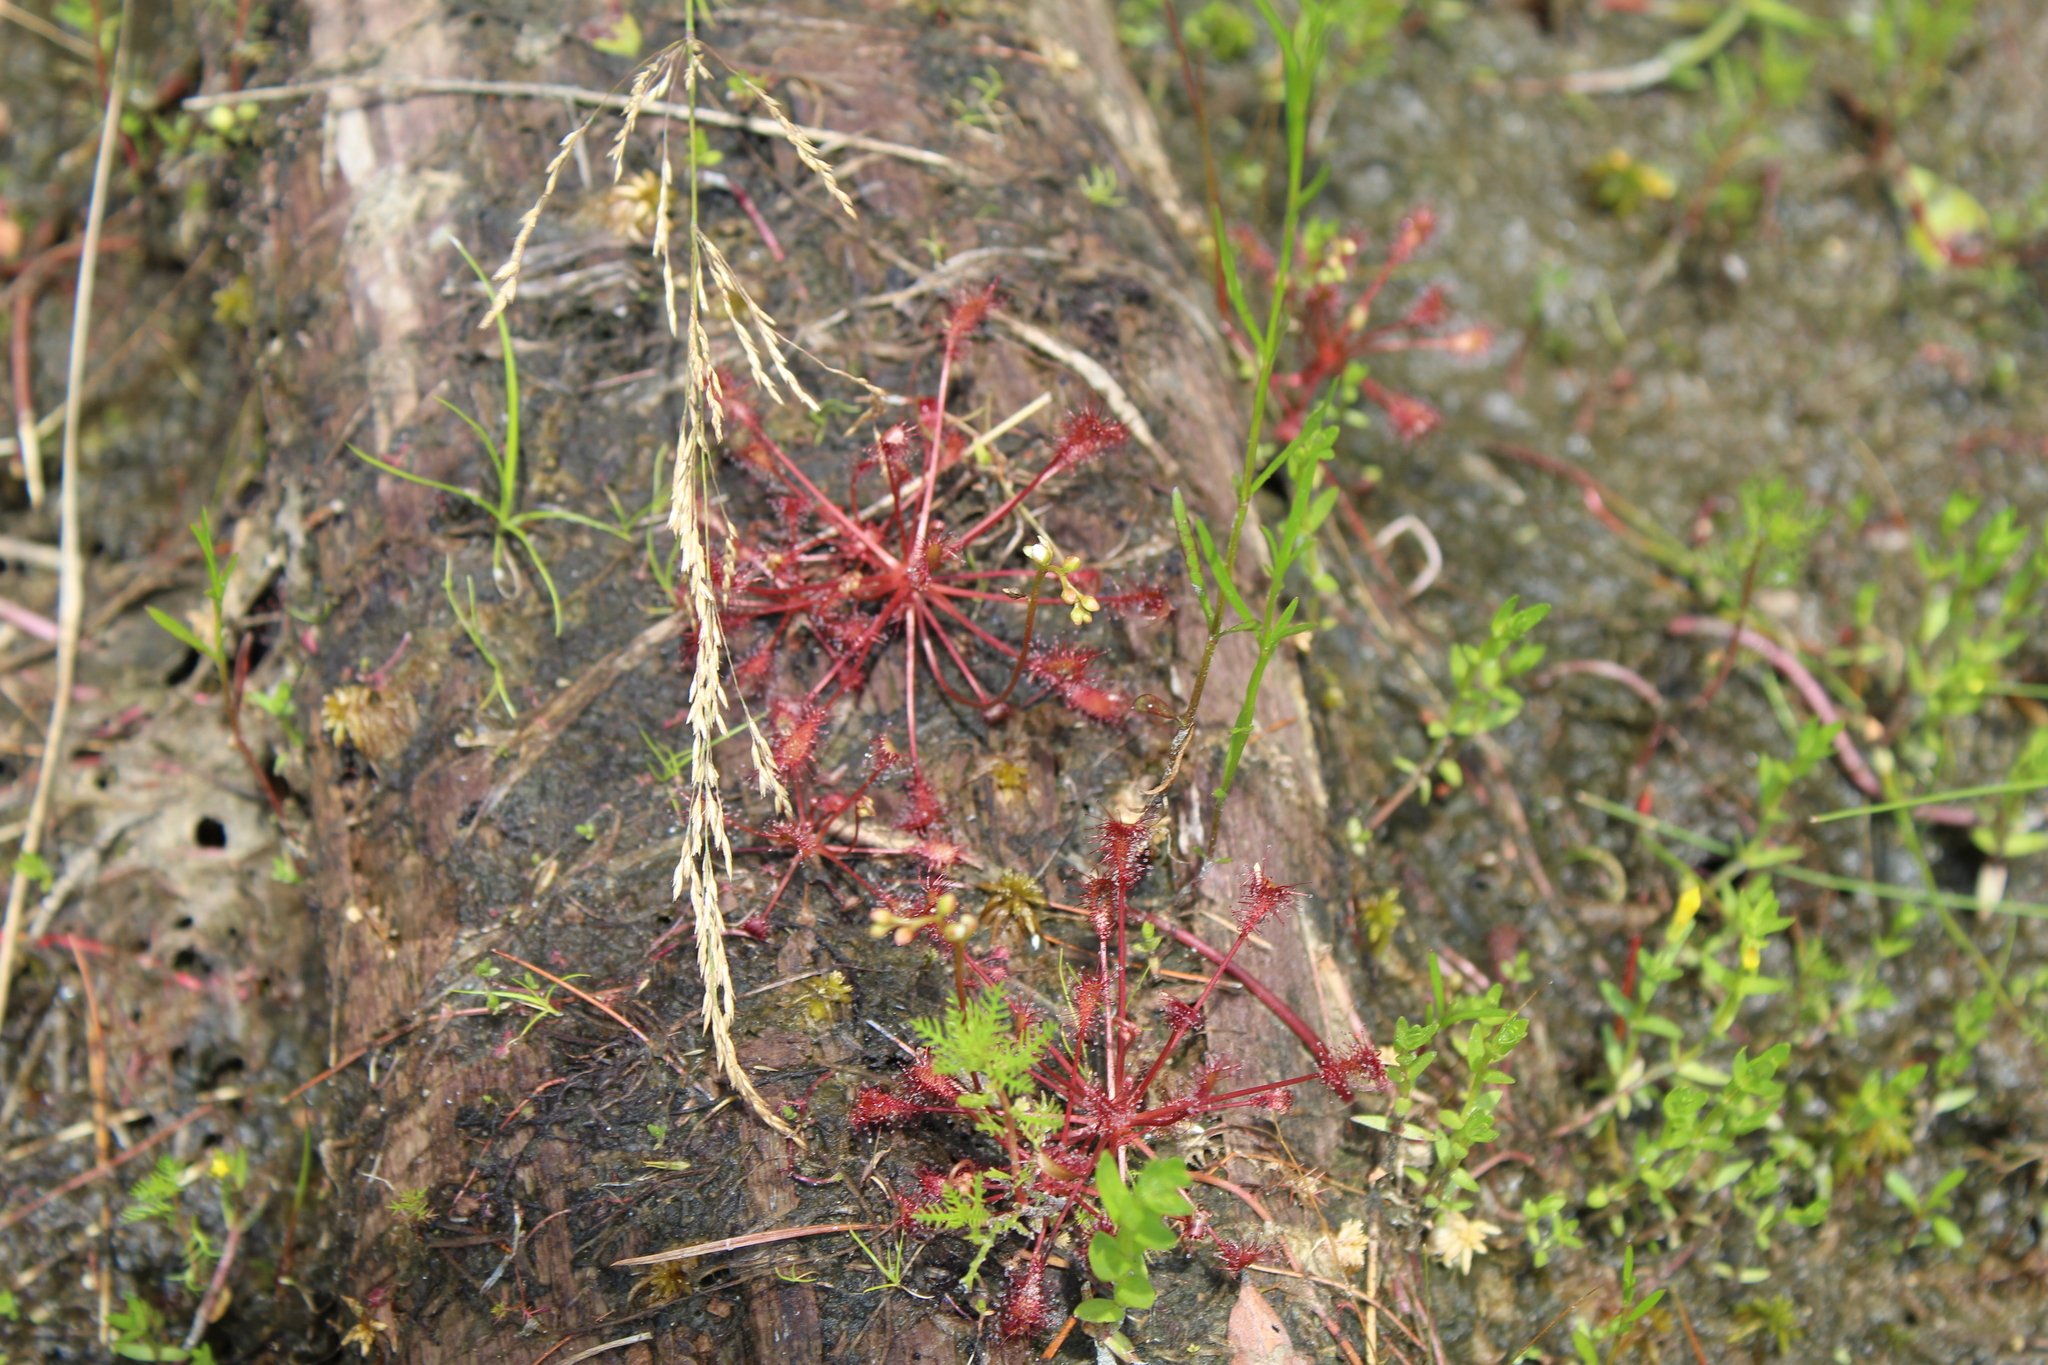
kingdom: Plantae
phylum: Tracheophyta
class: Magnoliopsida
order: Caryophyllales
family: Droseraceae
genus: Drosera
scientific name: Drosera intermedia
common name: Oblong-leaved sundew
